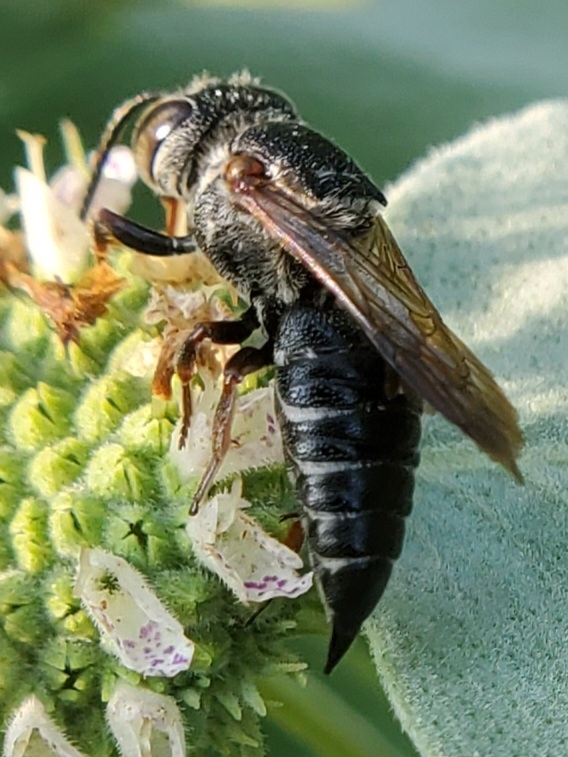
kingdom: Animalia
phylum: Arthropoda
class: Insecta
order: Hymenoptera
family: Megachilidae
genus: Coelioxys
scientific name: Coelioxys sayi
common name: Say's cuckoo leaf-cutter bee
